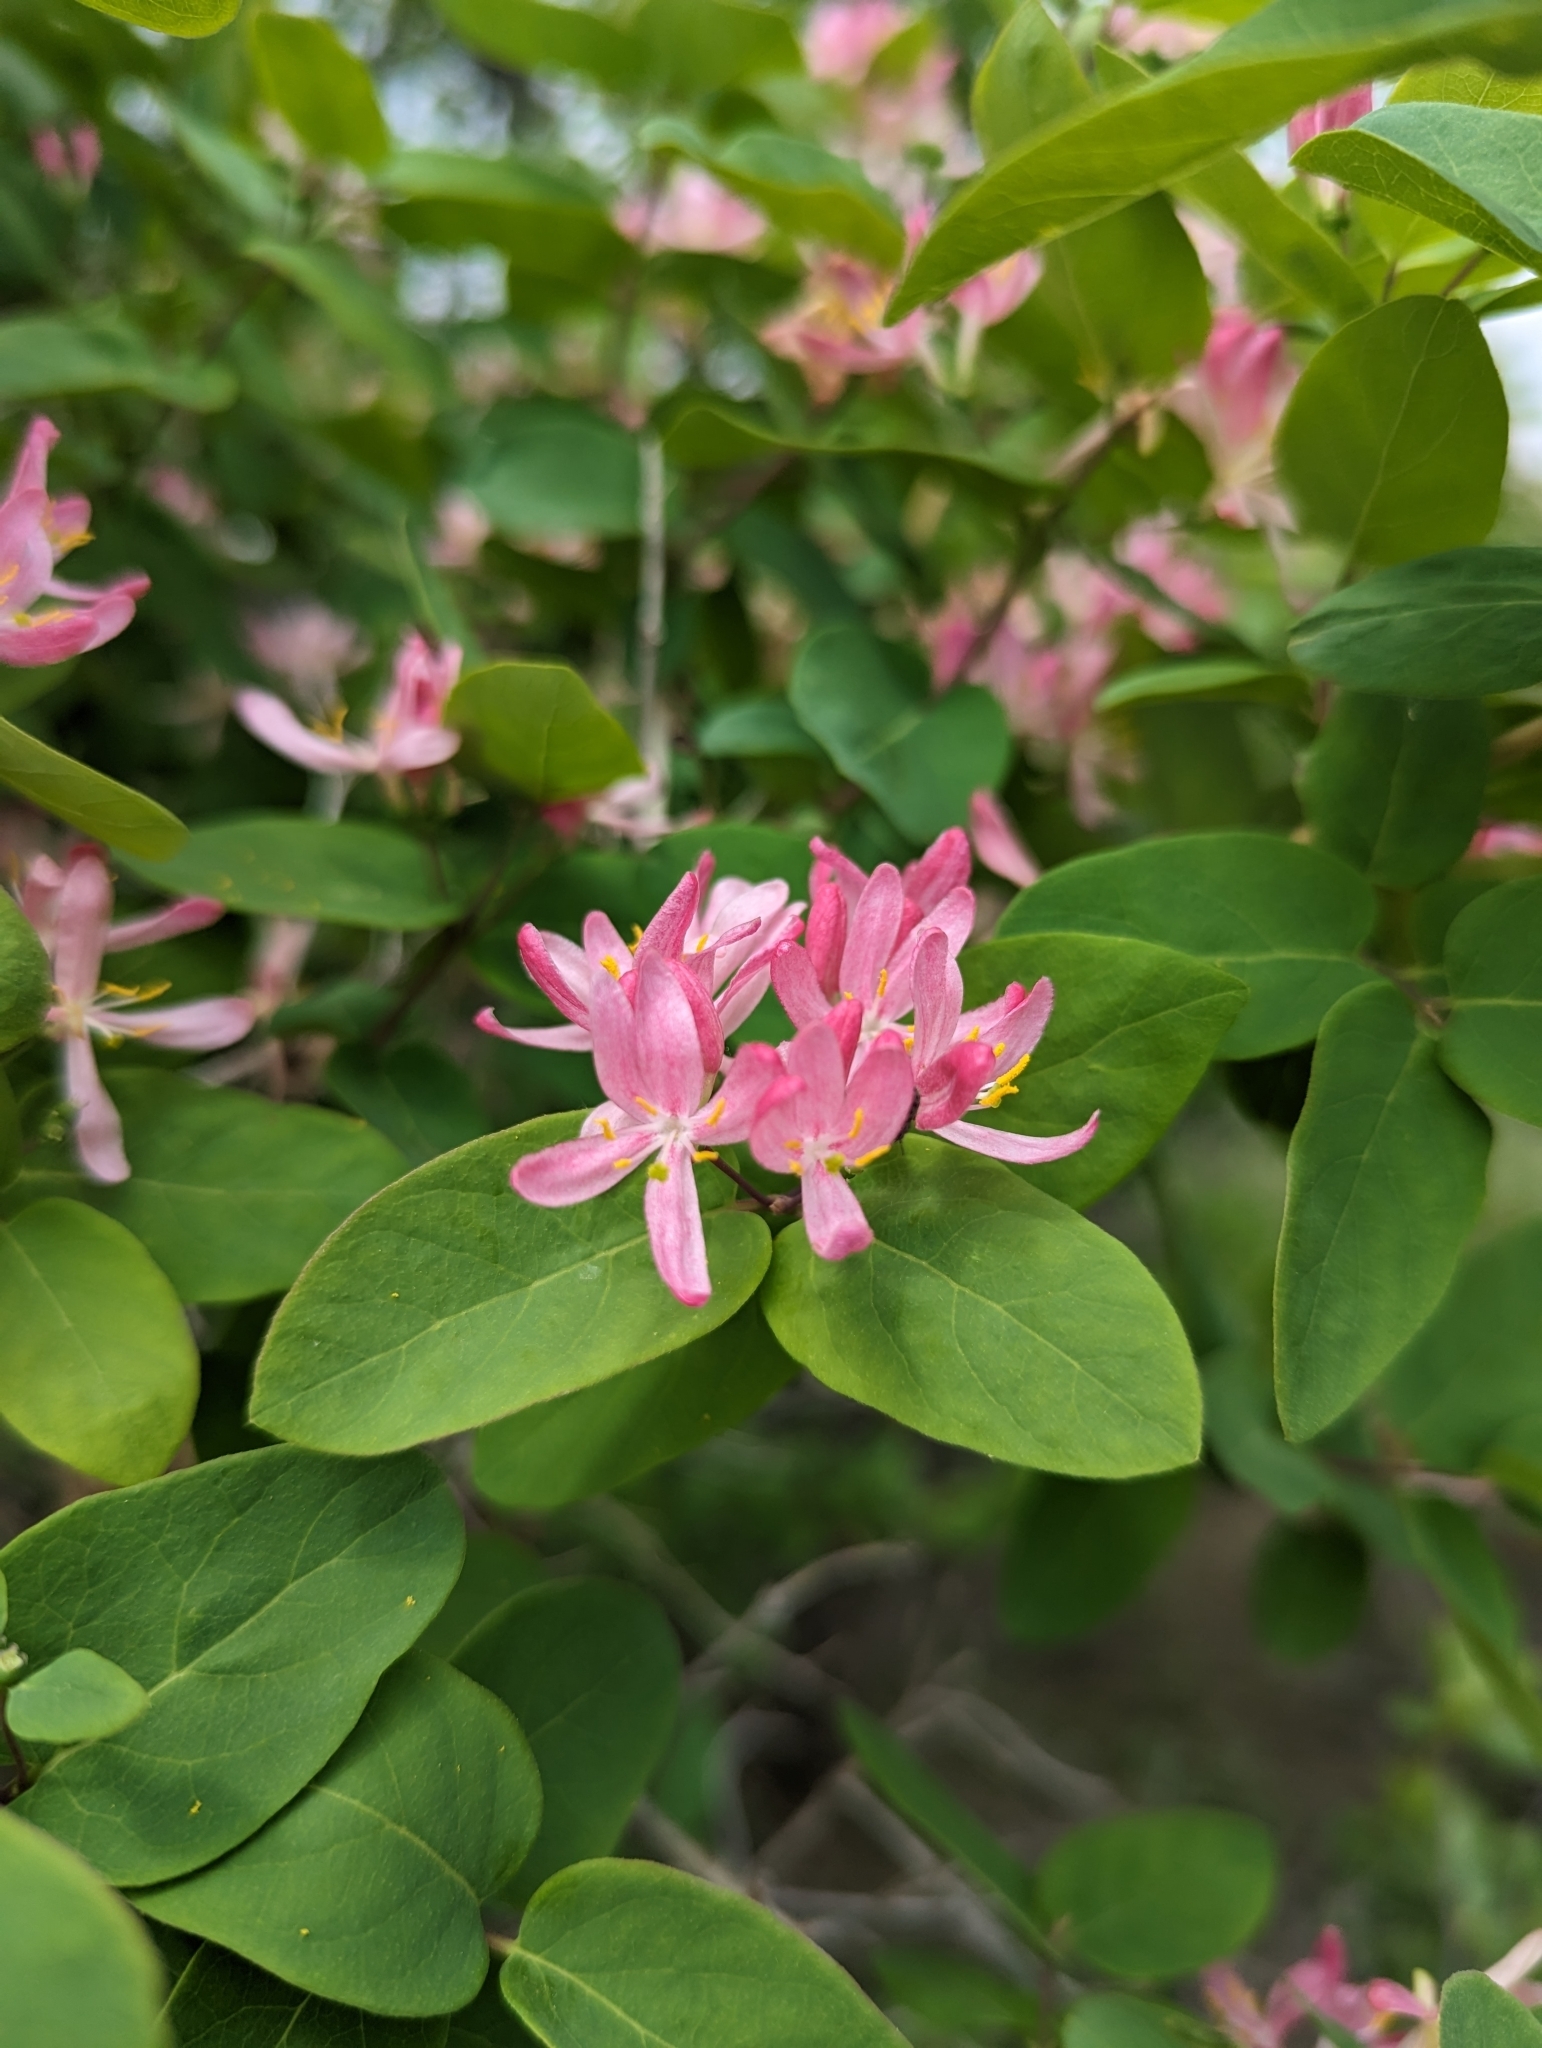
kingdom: Plantae
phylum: Tracheophyta
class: Magnoliopsida
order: Dipsacales
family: Caprifoliaceae
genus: Lonicera
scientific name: Lonicera tatarica
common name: Tatarian honeysuckle
